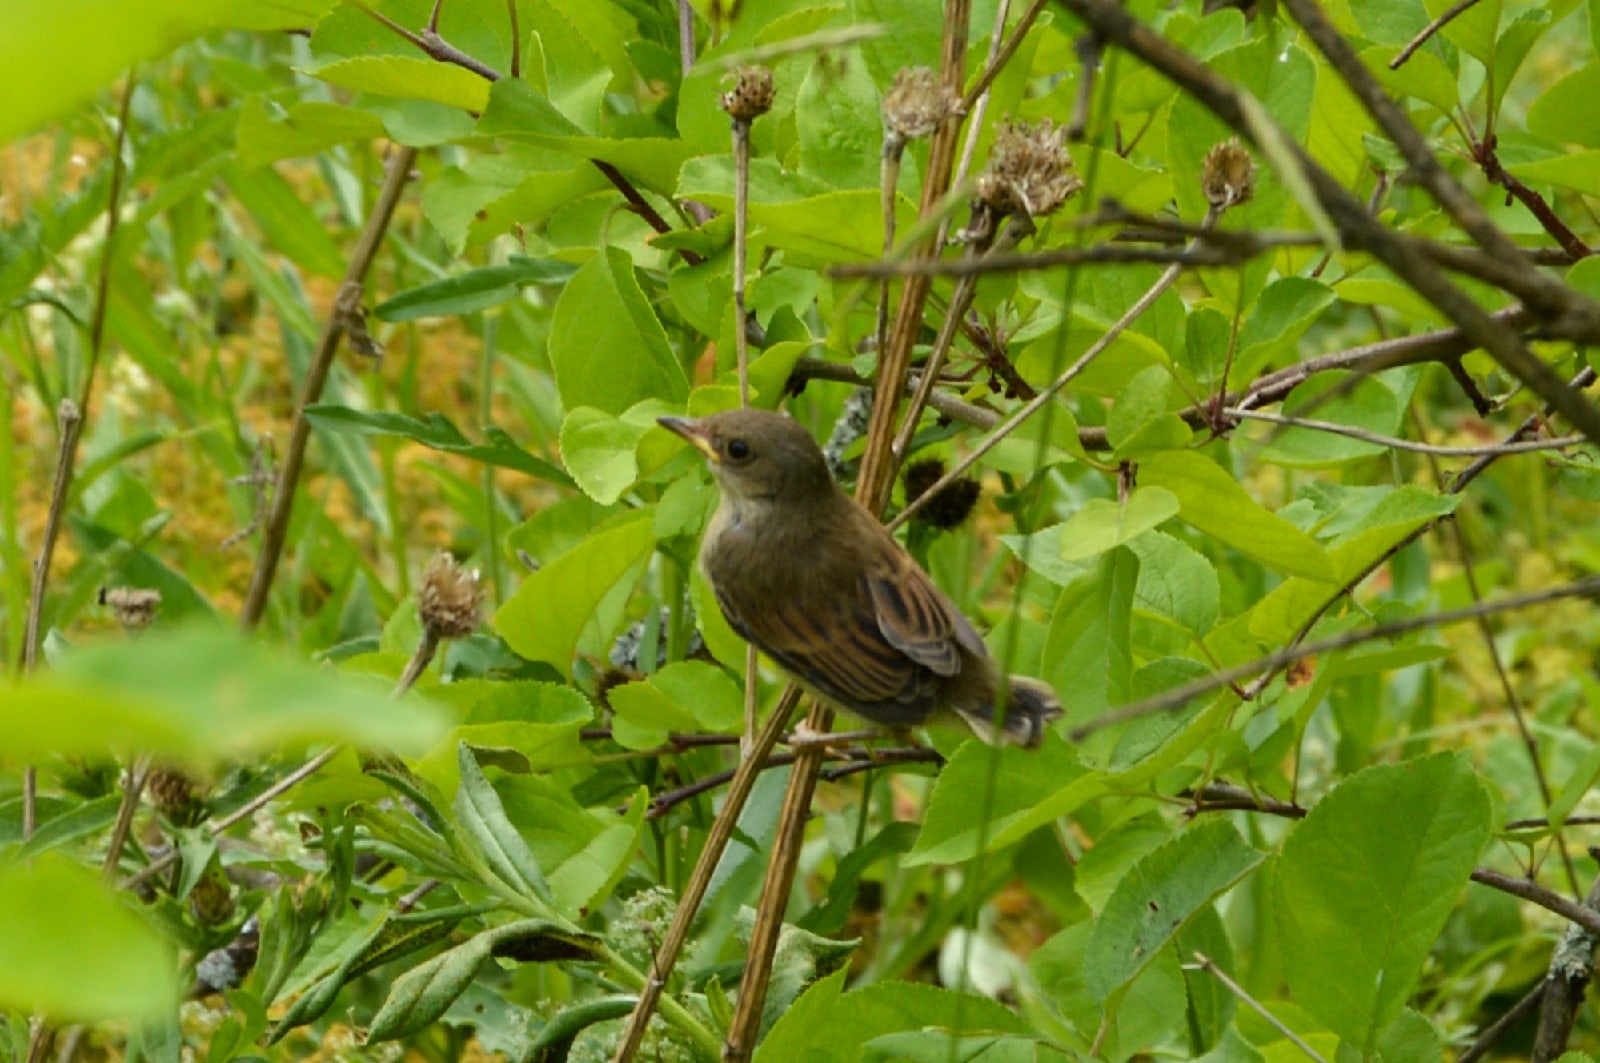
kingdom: Animalia
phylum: Chordata
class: Aves
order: Passeriformes
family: Sylviidae
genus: Sylvia
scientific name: Sylvia communis
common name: Common whitethroat
